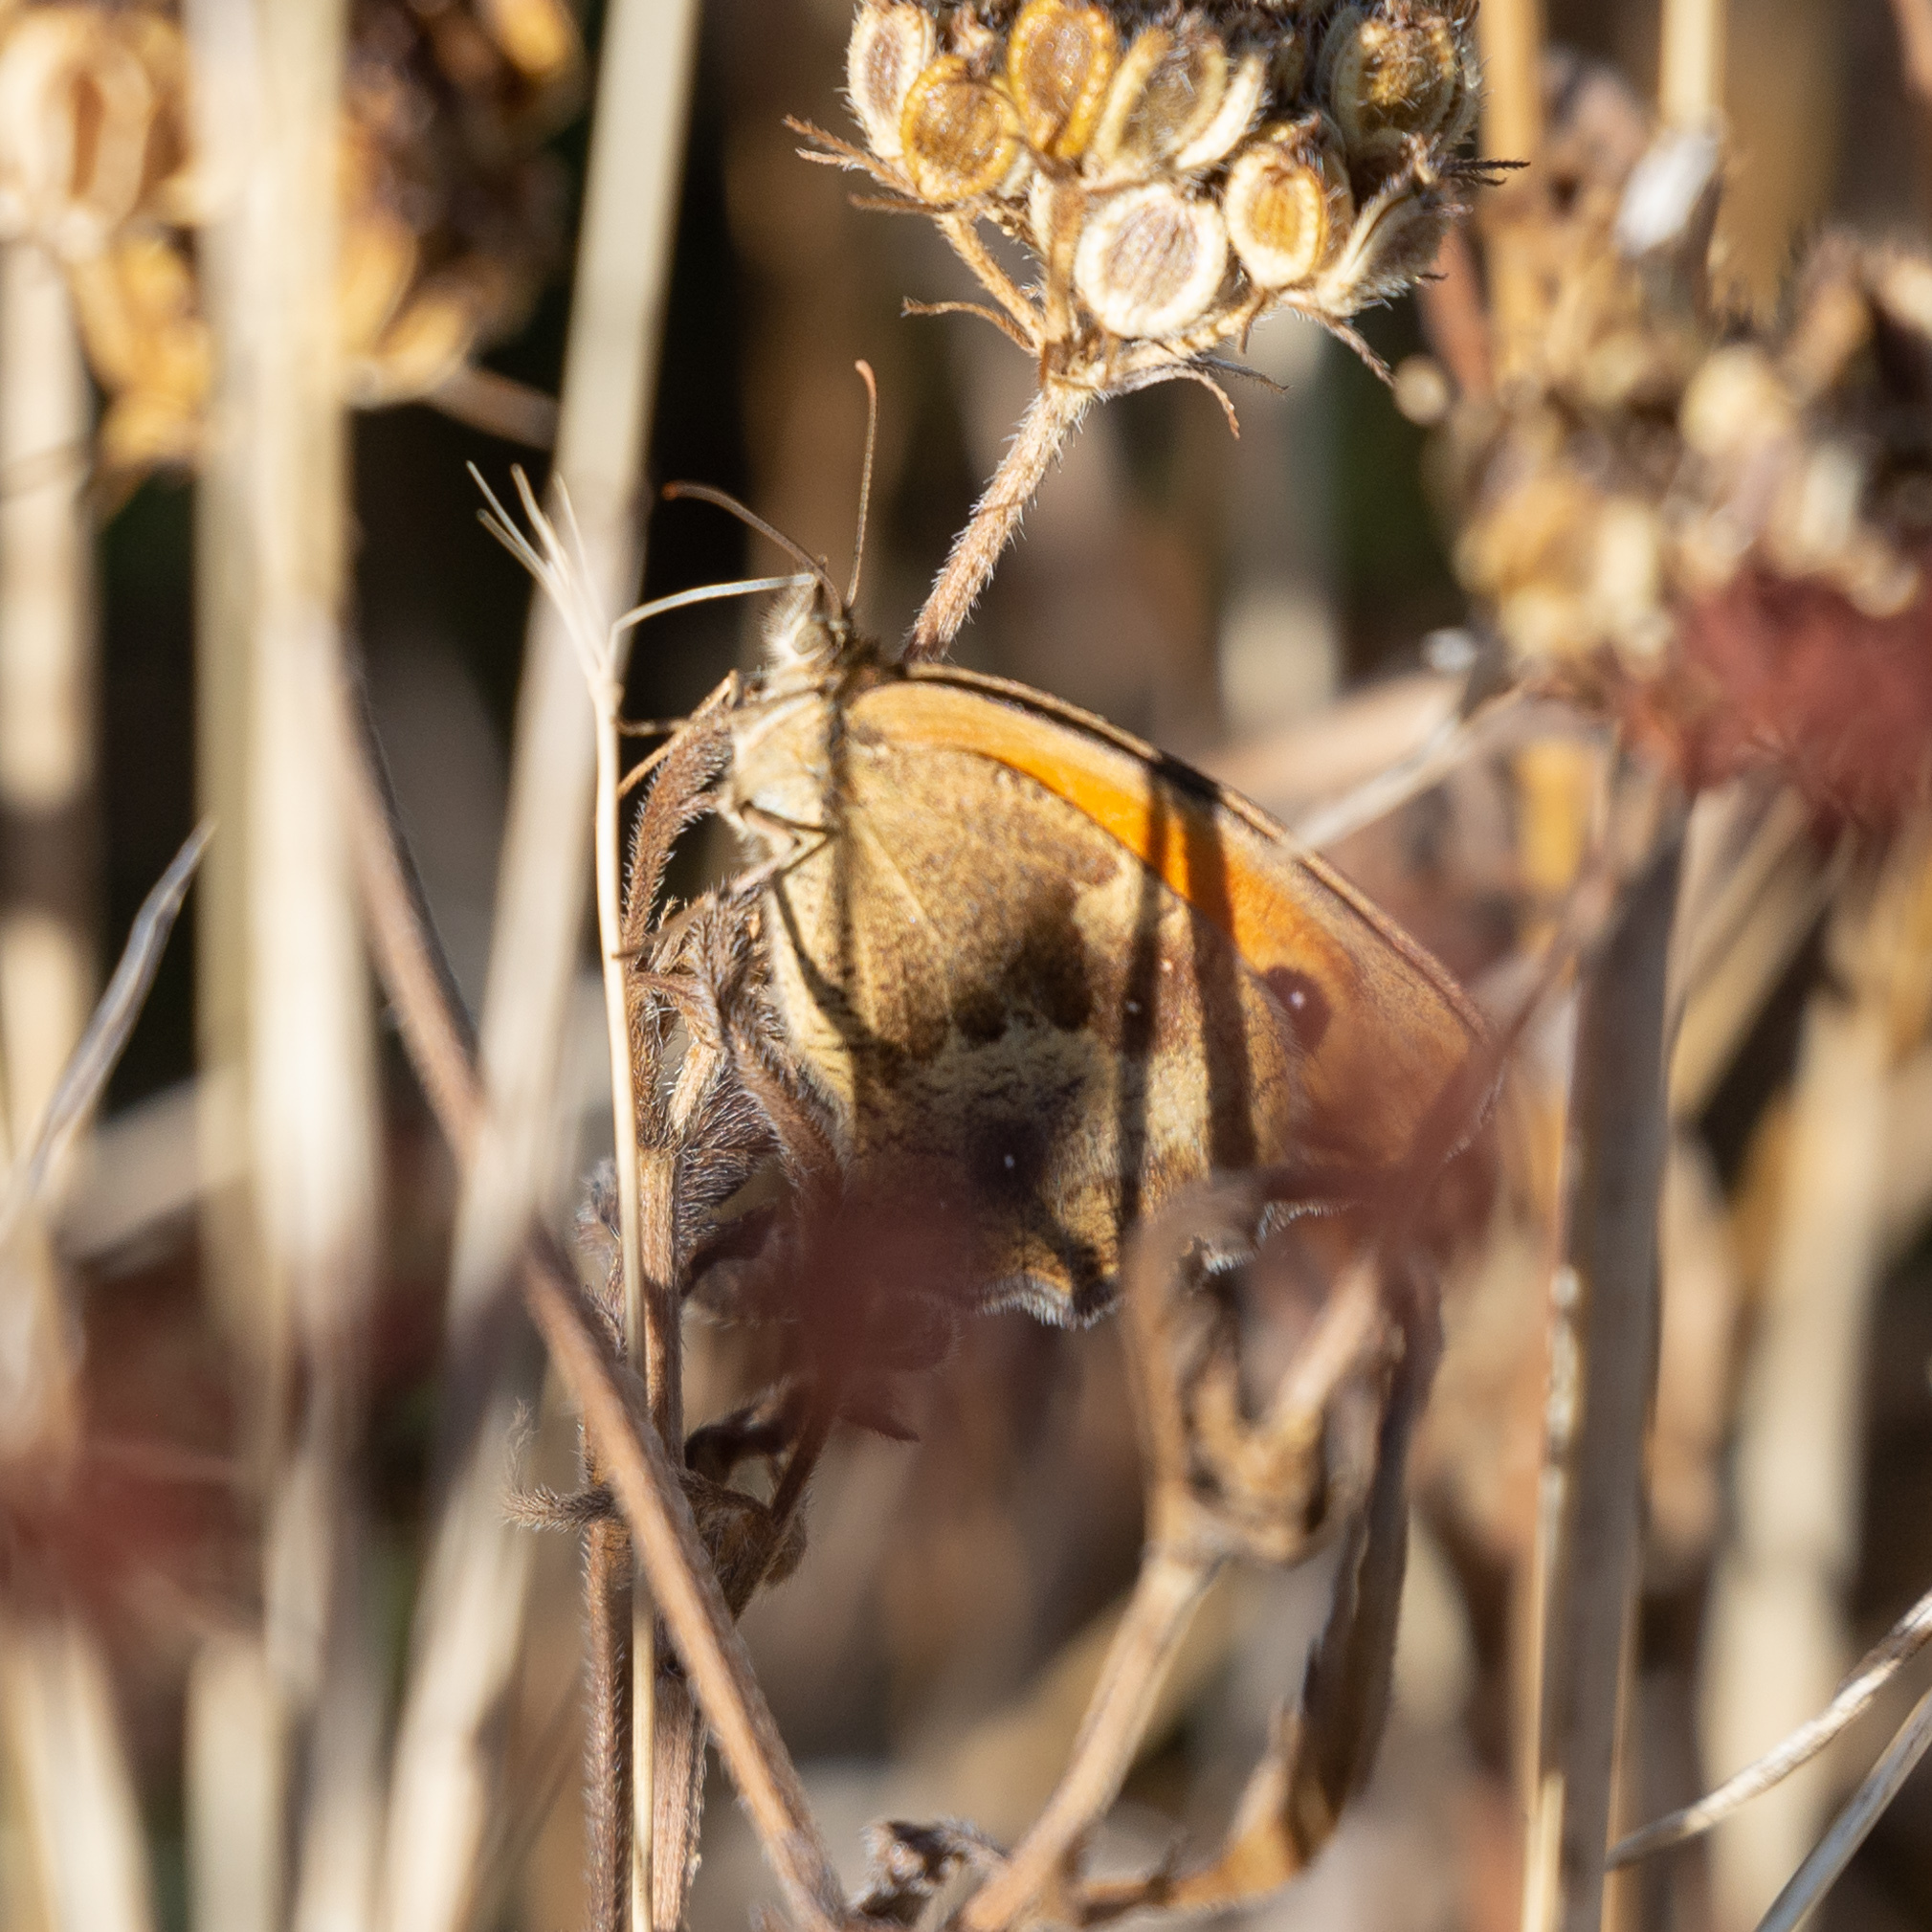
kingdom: Animalia
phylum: Arthropoda
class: Insecta
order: Lepidoptera
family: Nymphalidae
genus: Pyronia
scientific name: Pyronia tithonus
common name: Gatekeeper
